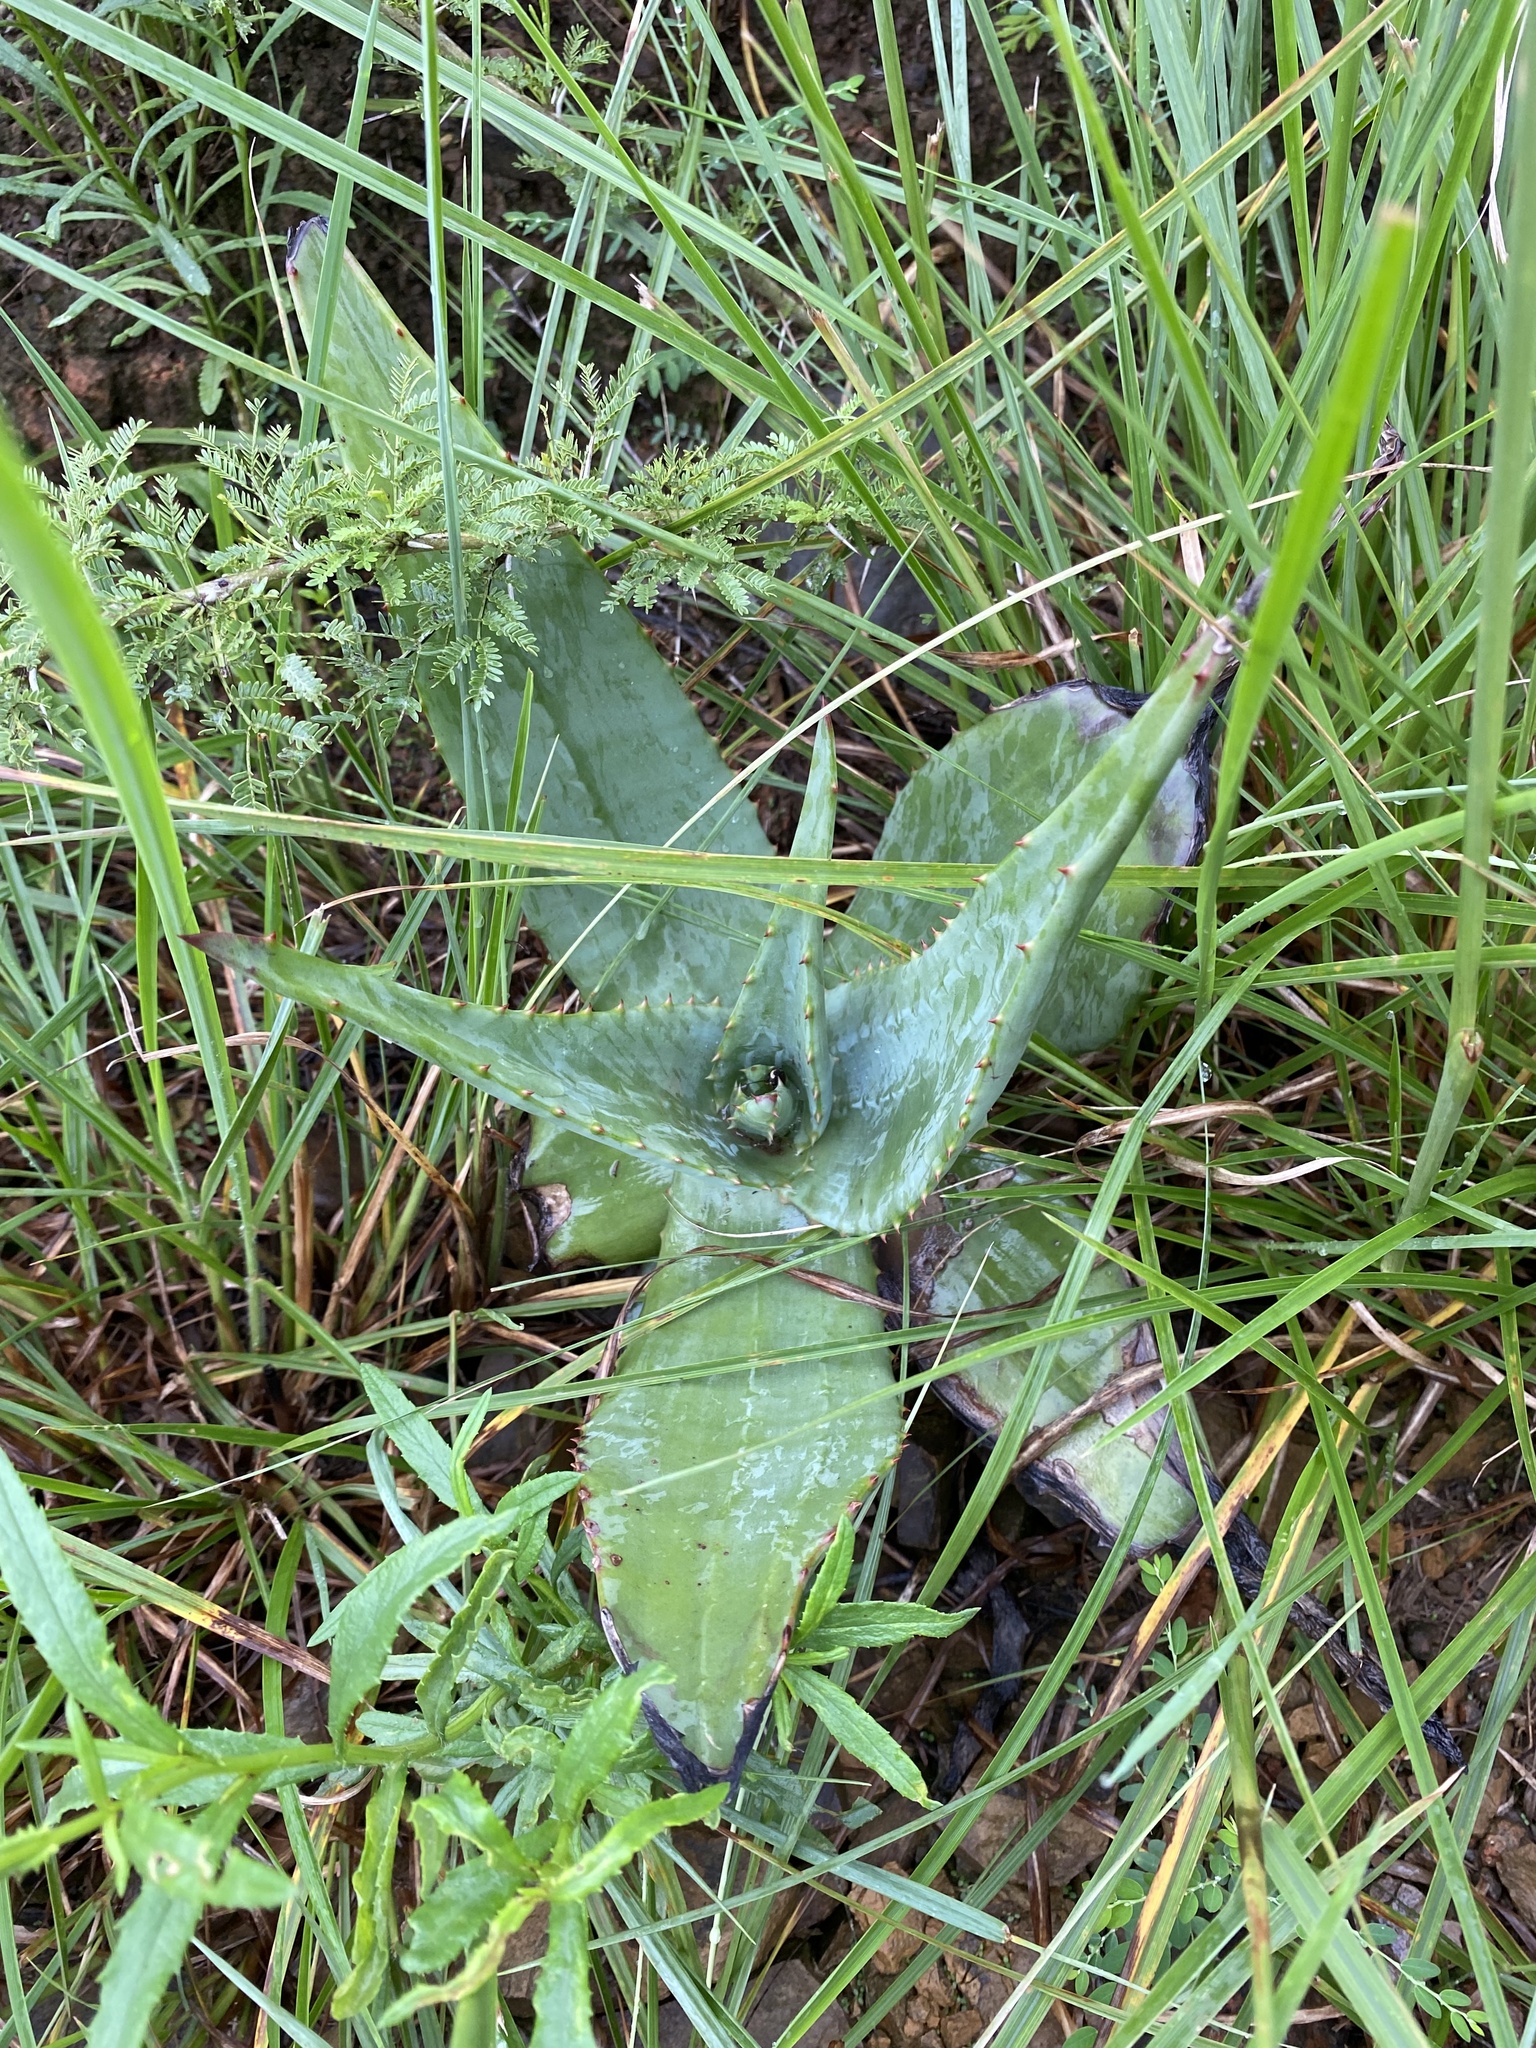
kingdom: Plantae
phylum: Tracheophyta
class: Liliopsida
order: Asparagales
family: Asphodelaceae
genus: Aloe
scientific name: Aloe candelabrum
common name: Candelabra aloe
